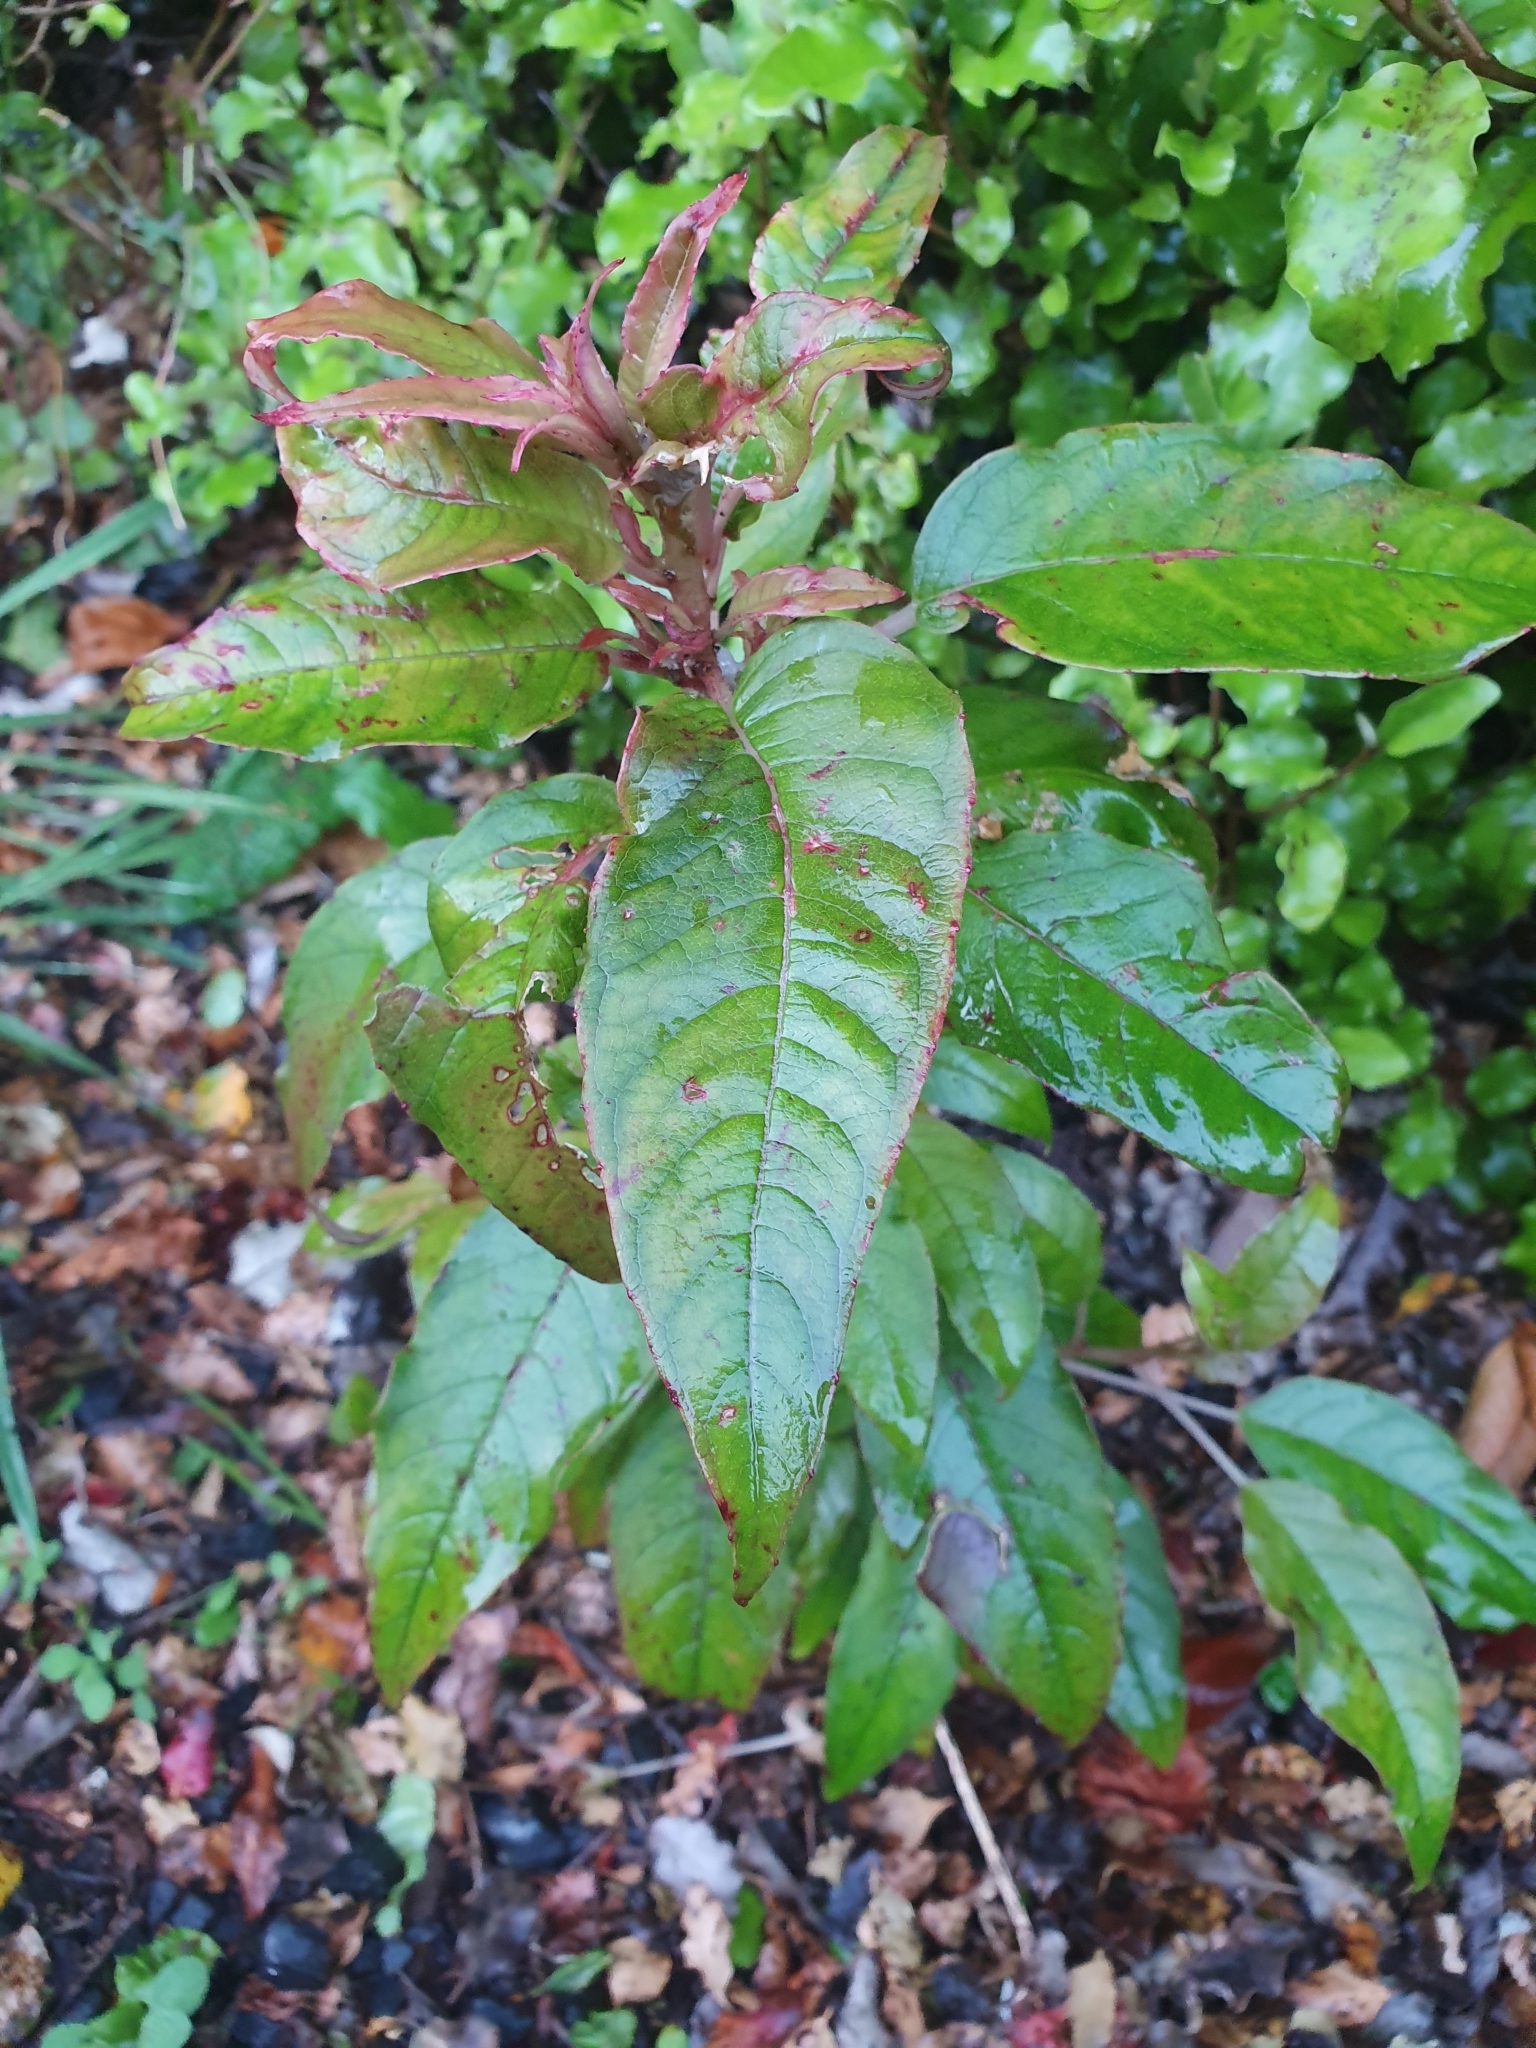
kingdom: Plantae
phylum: Tracheophyta
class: Magnoliopsida
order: Myrtales
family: Onagraceae
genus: Fuchsia
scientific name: Fuchsia excorticata
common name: Tree fuchsia
